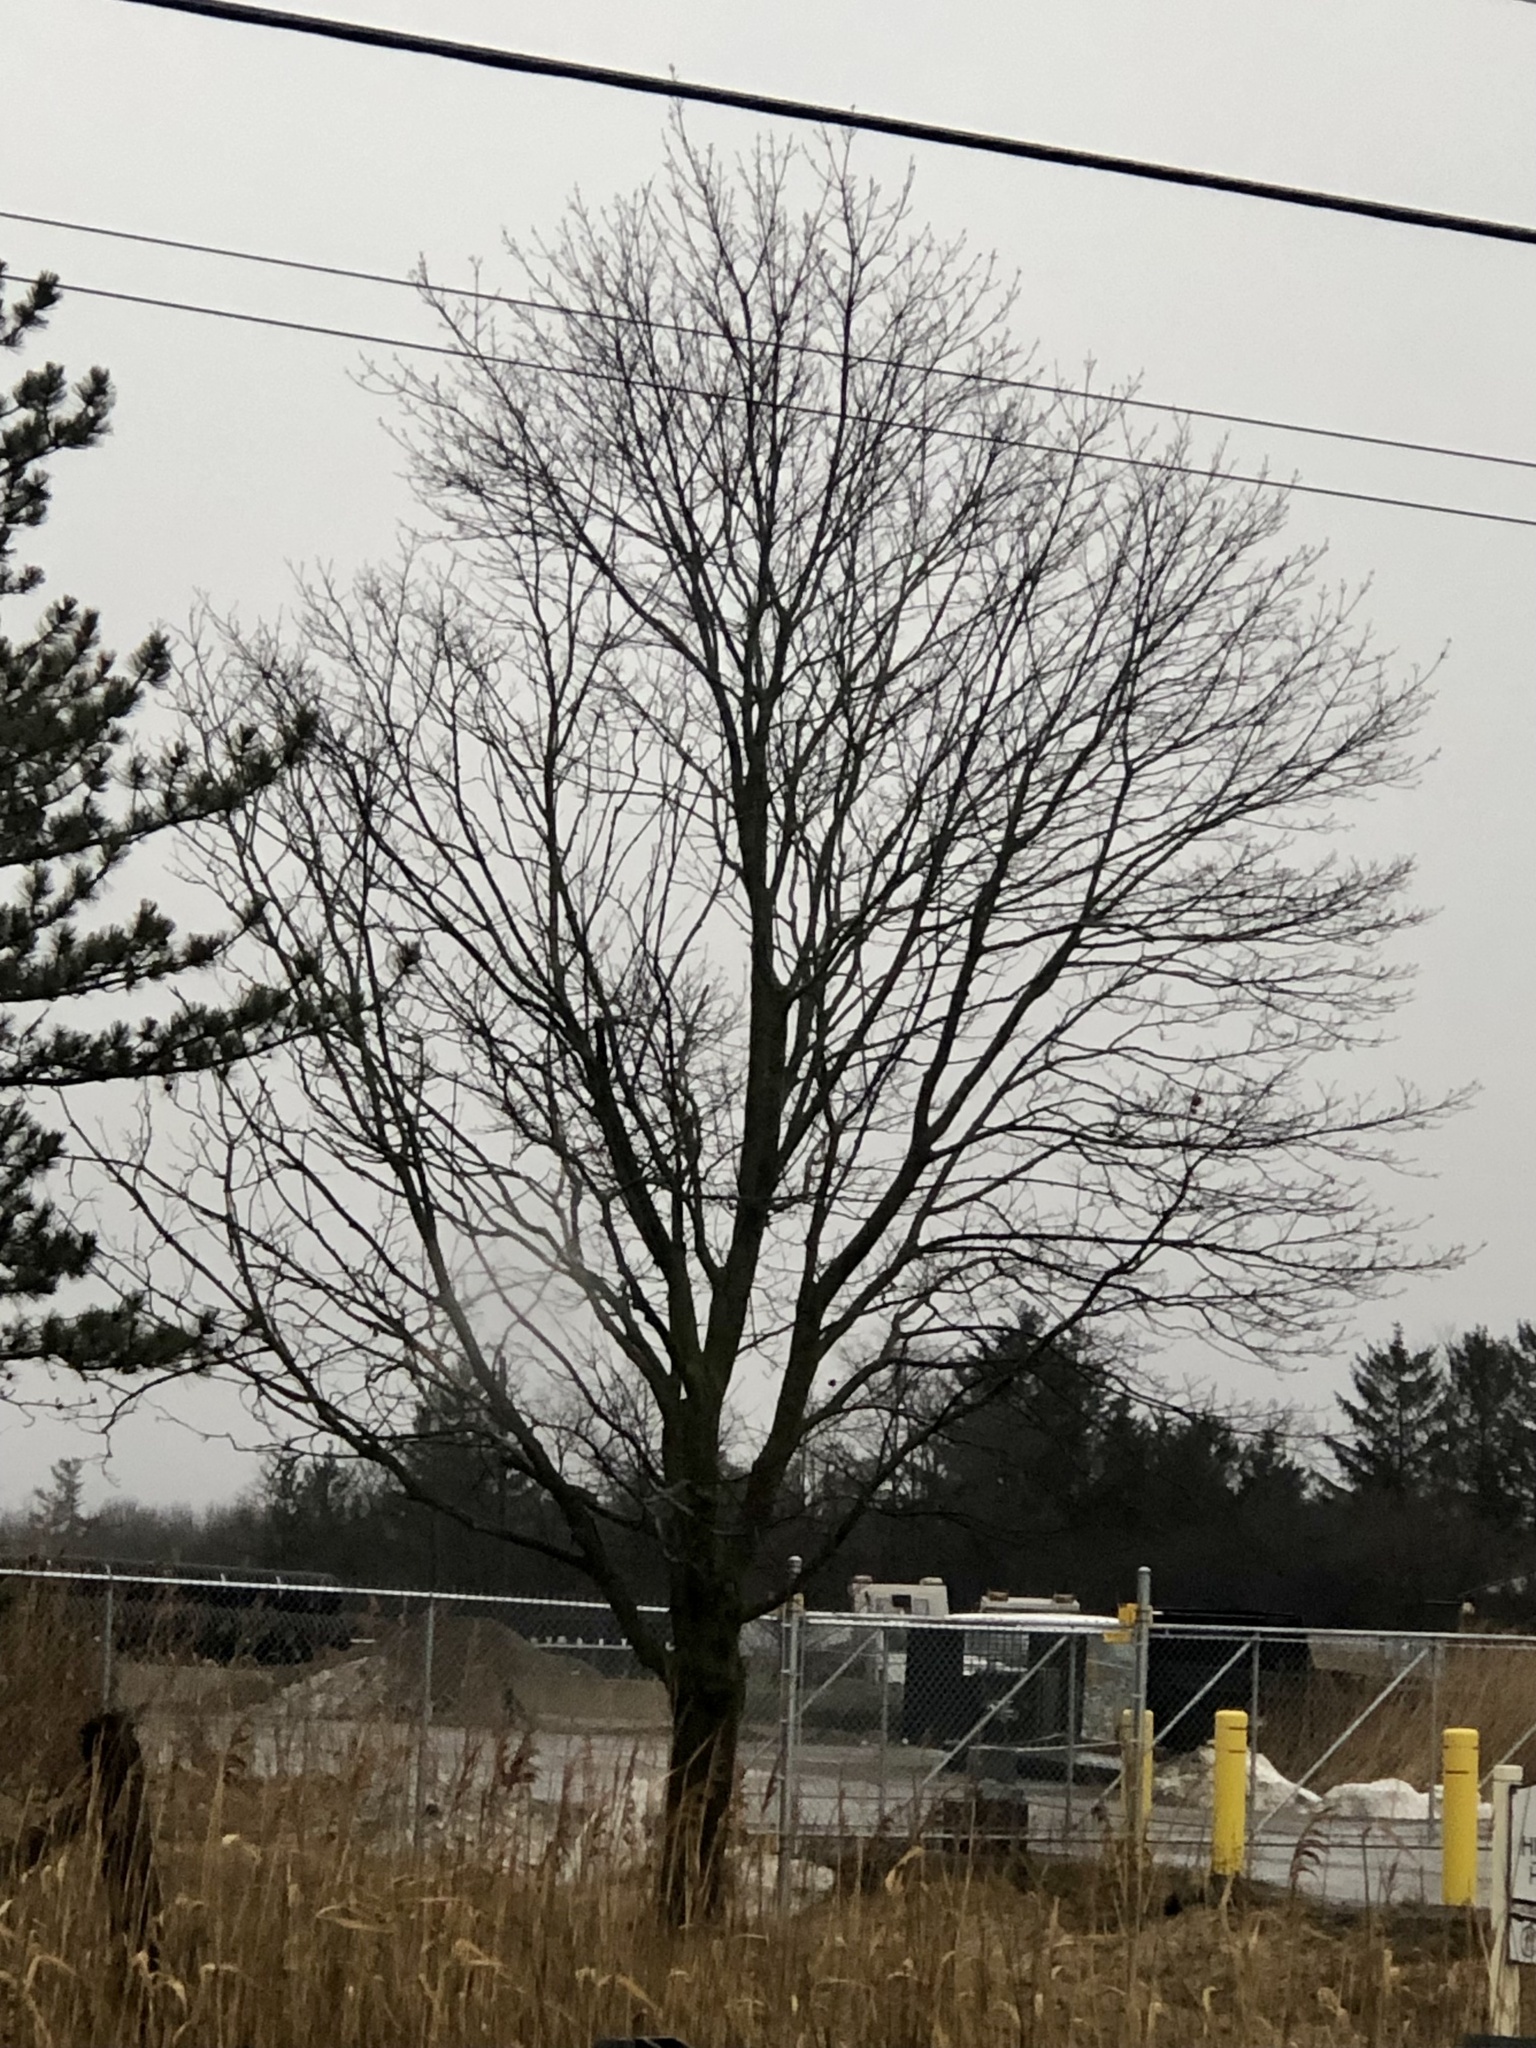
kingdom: Plantae
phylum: Tracheophyta
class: Magnoliopsida
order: Sapindales
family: Sapindaceae
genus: Acer
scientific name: Acer platanoides
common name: Norway maple
